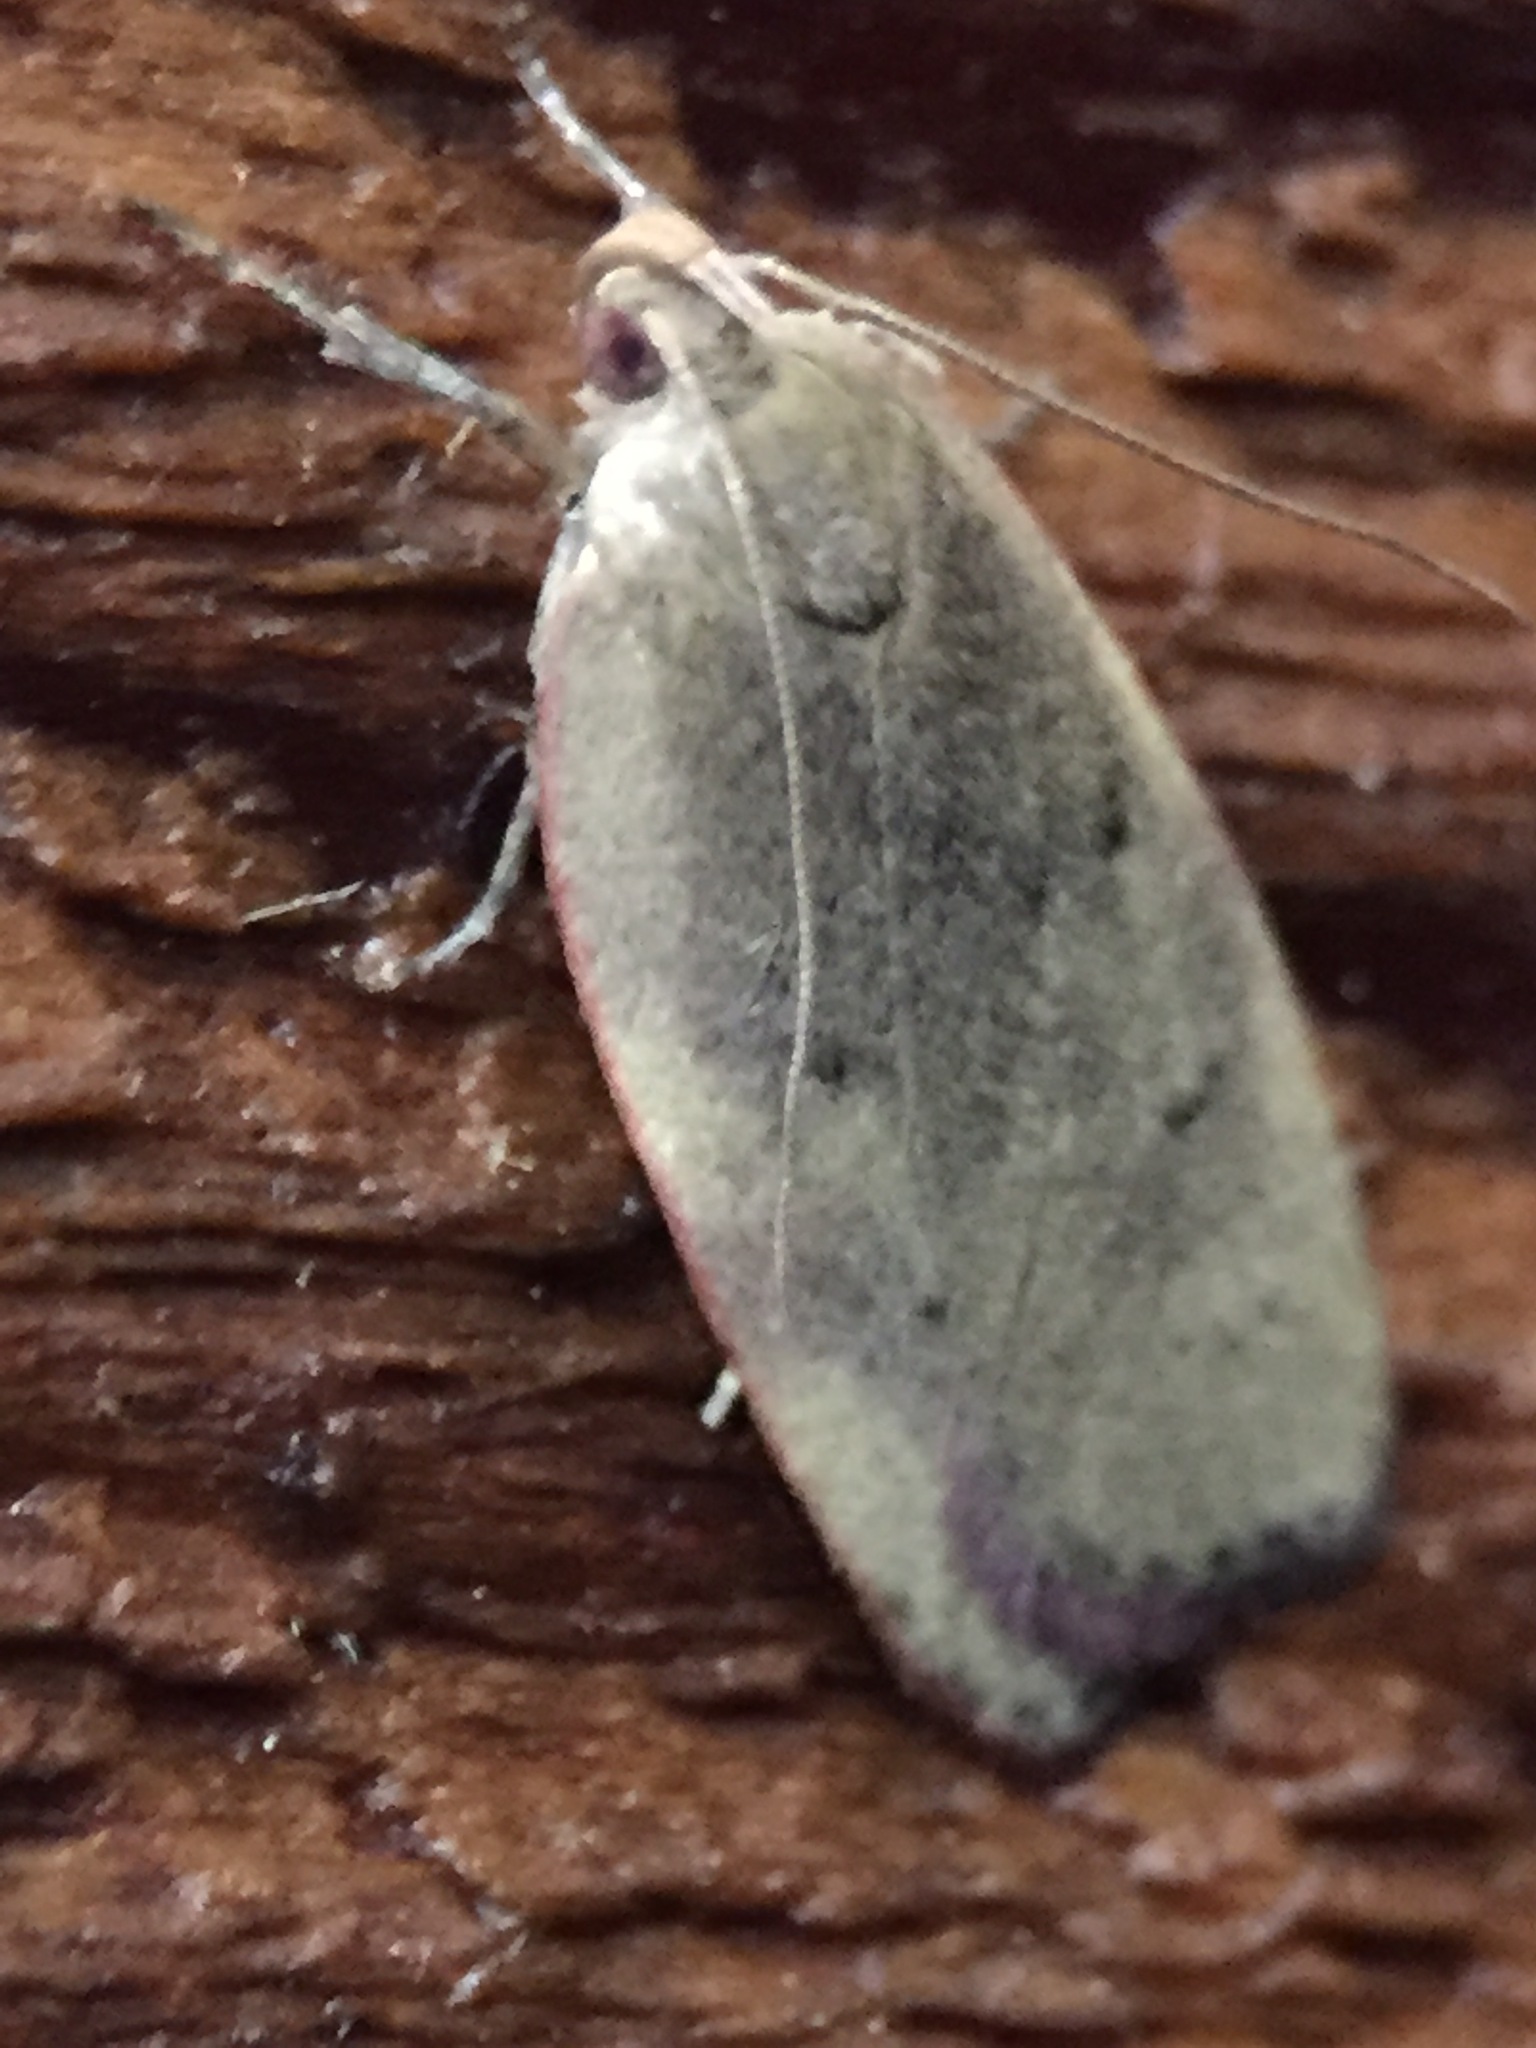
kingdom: Animalia
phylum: Arthropoda
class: Insecta
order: Lepidoptera
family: Depressariidae
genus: Phaeosaces
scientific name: Phaeosaces coarctatella
